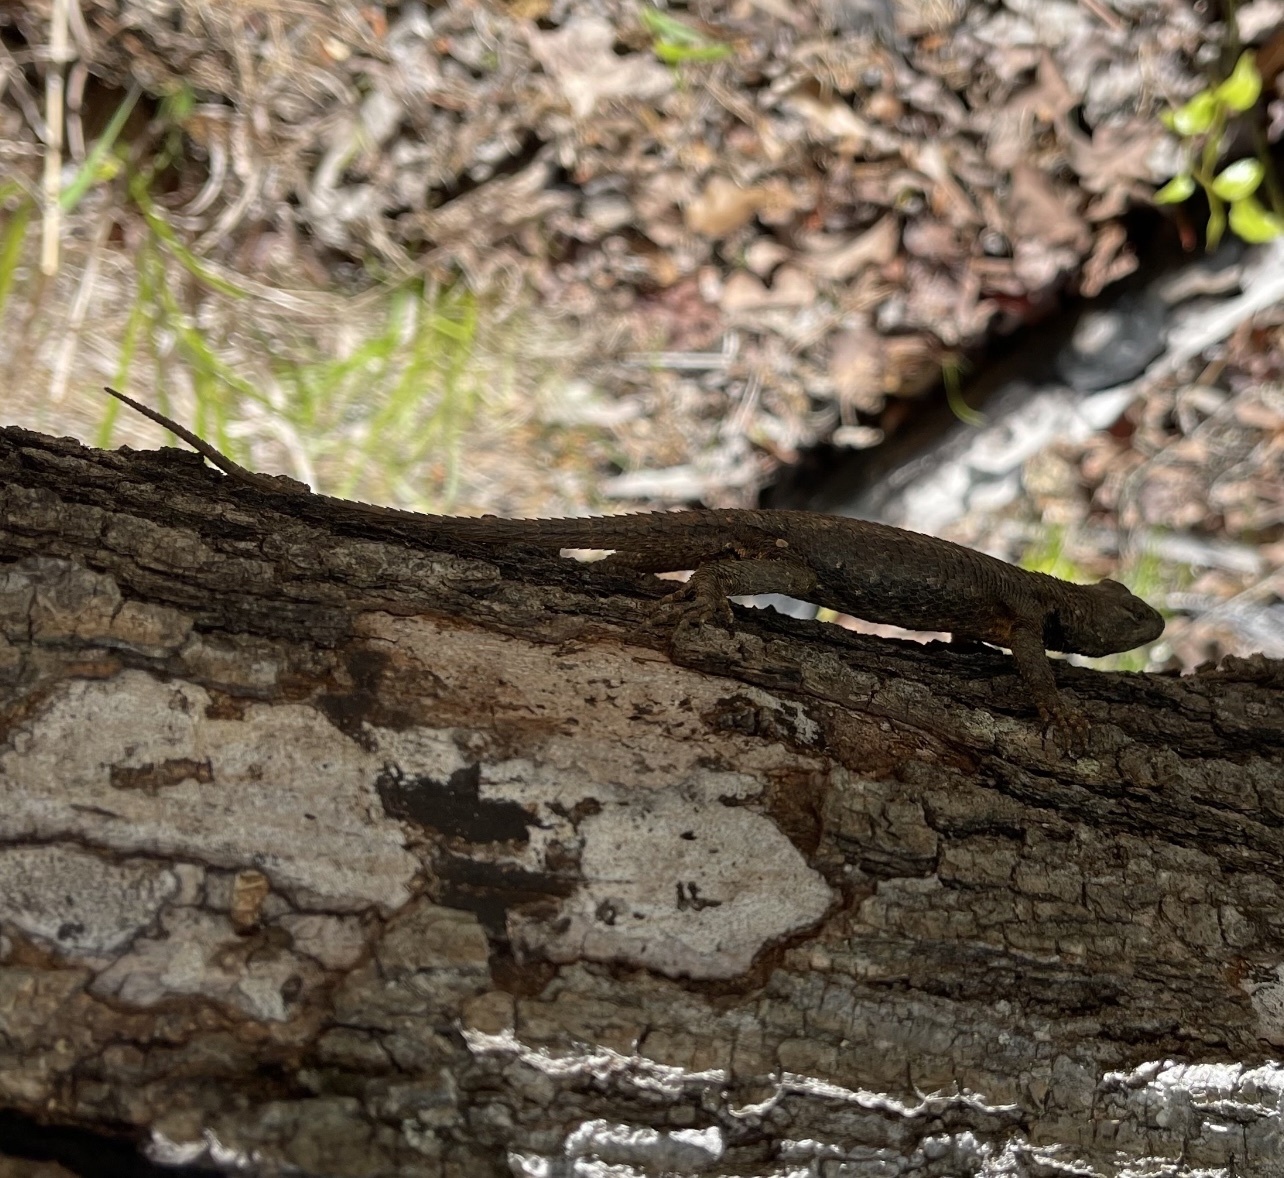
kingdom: Animalia
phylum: Chordata
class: Squamata
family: Phrynosomatidae
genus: Sceloporus
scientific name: Sceloporus undulatus
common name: Eastern fence lizard
